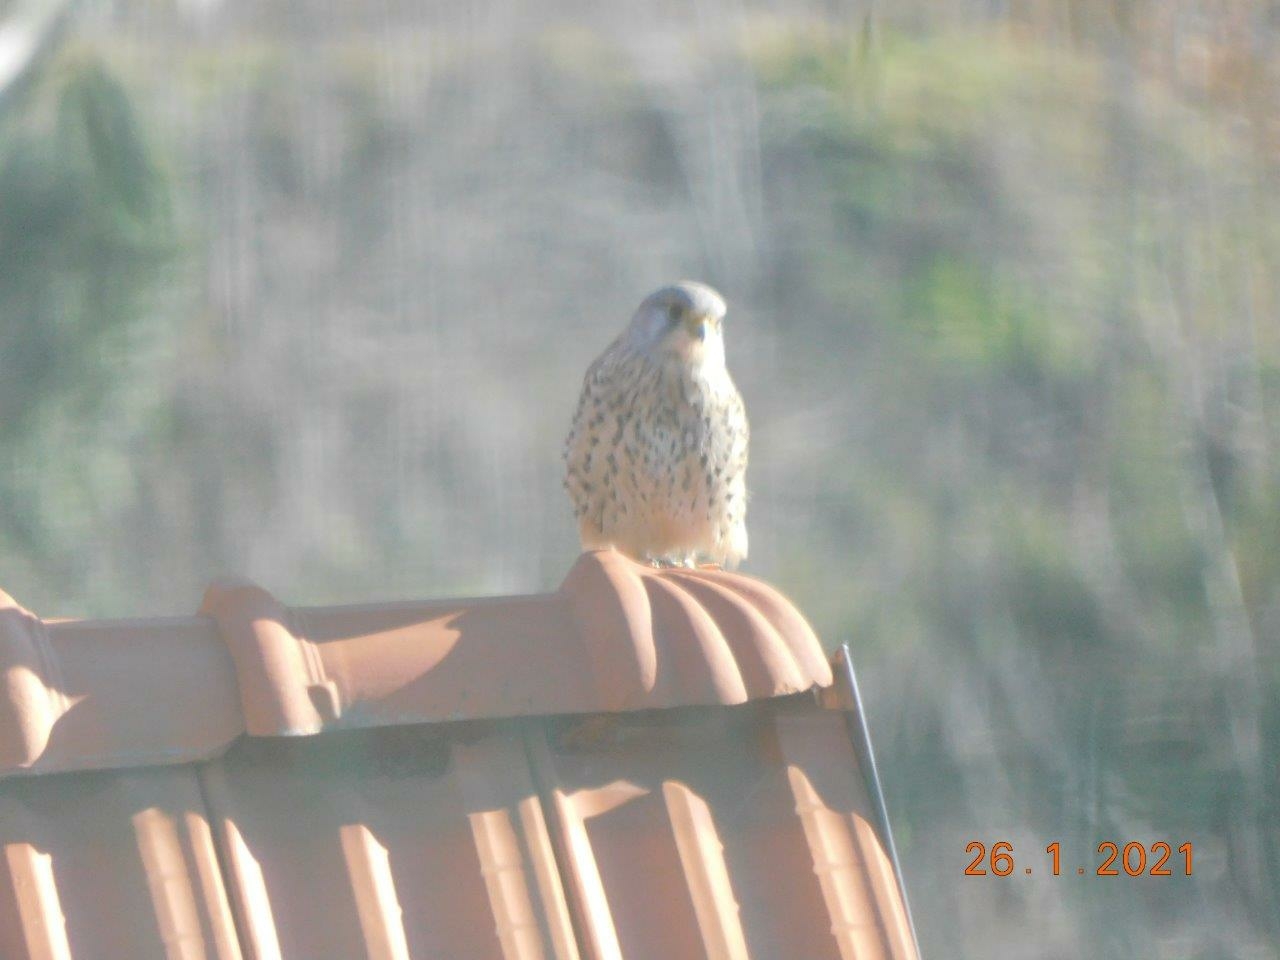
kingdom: Animalia
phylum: Chordata
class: Aves
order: Falconiformes
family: Falconidae
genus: Falco
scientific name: Falco tinnunculus
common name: Common kestrel
